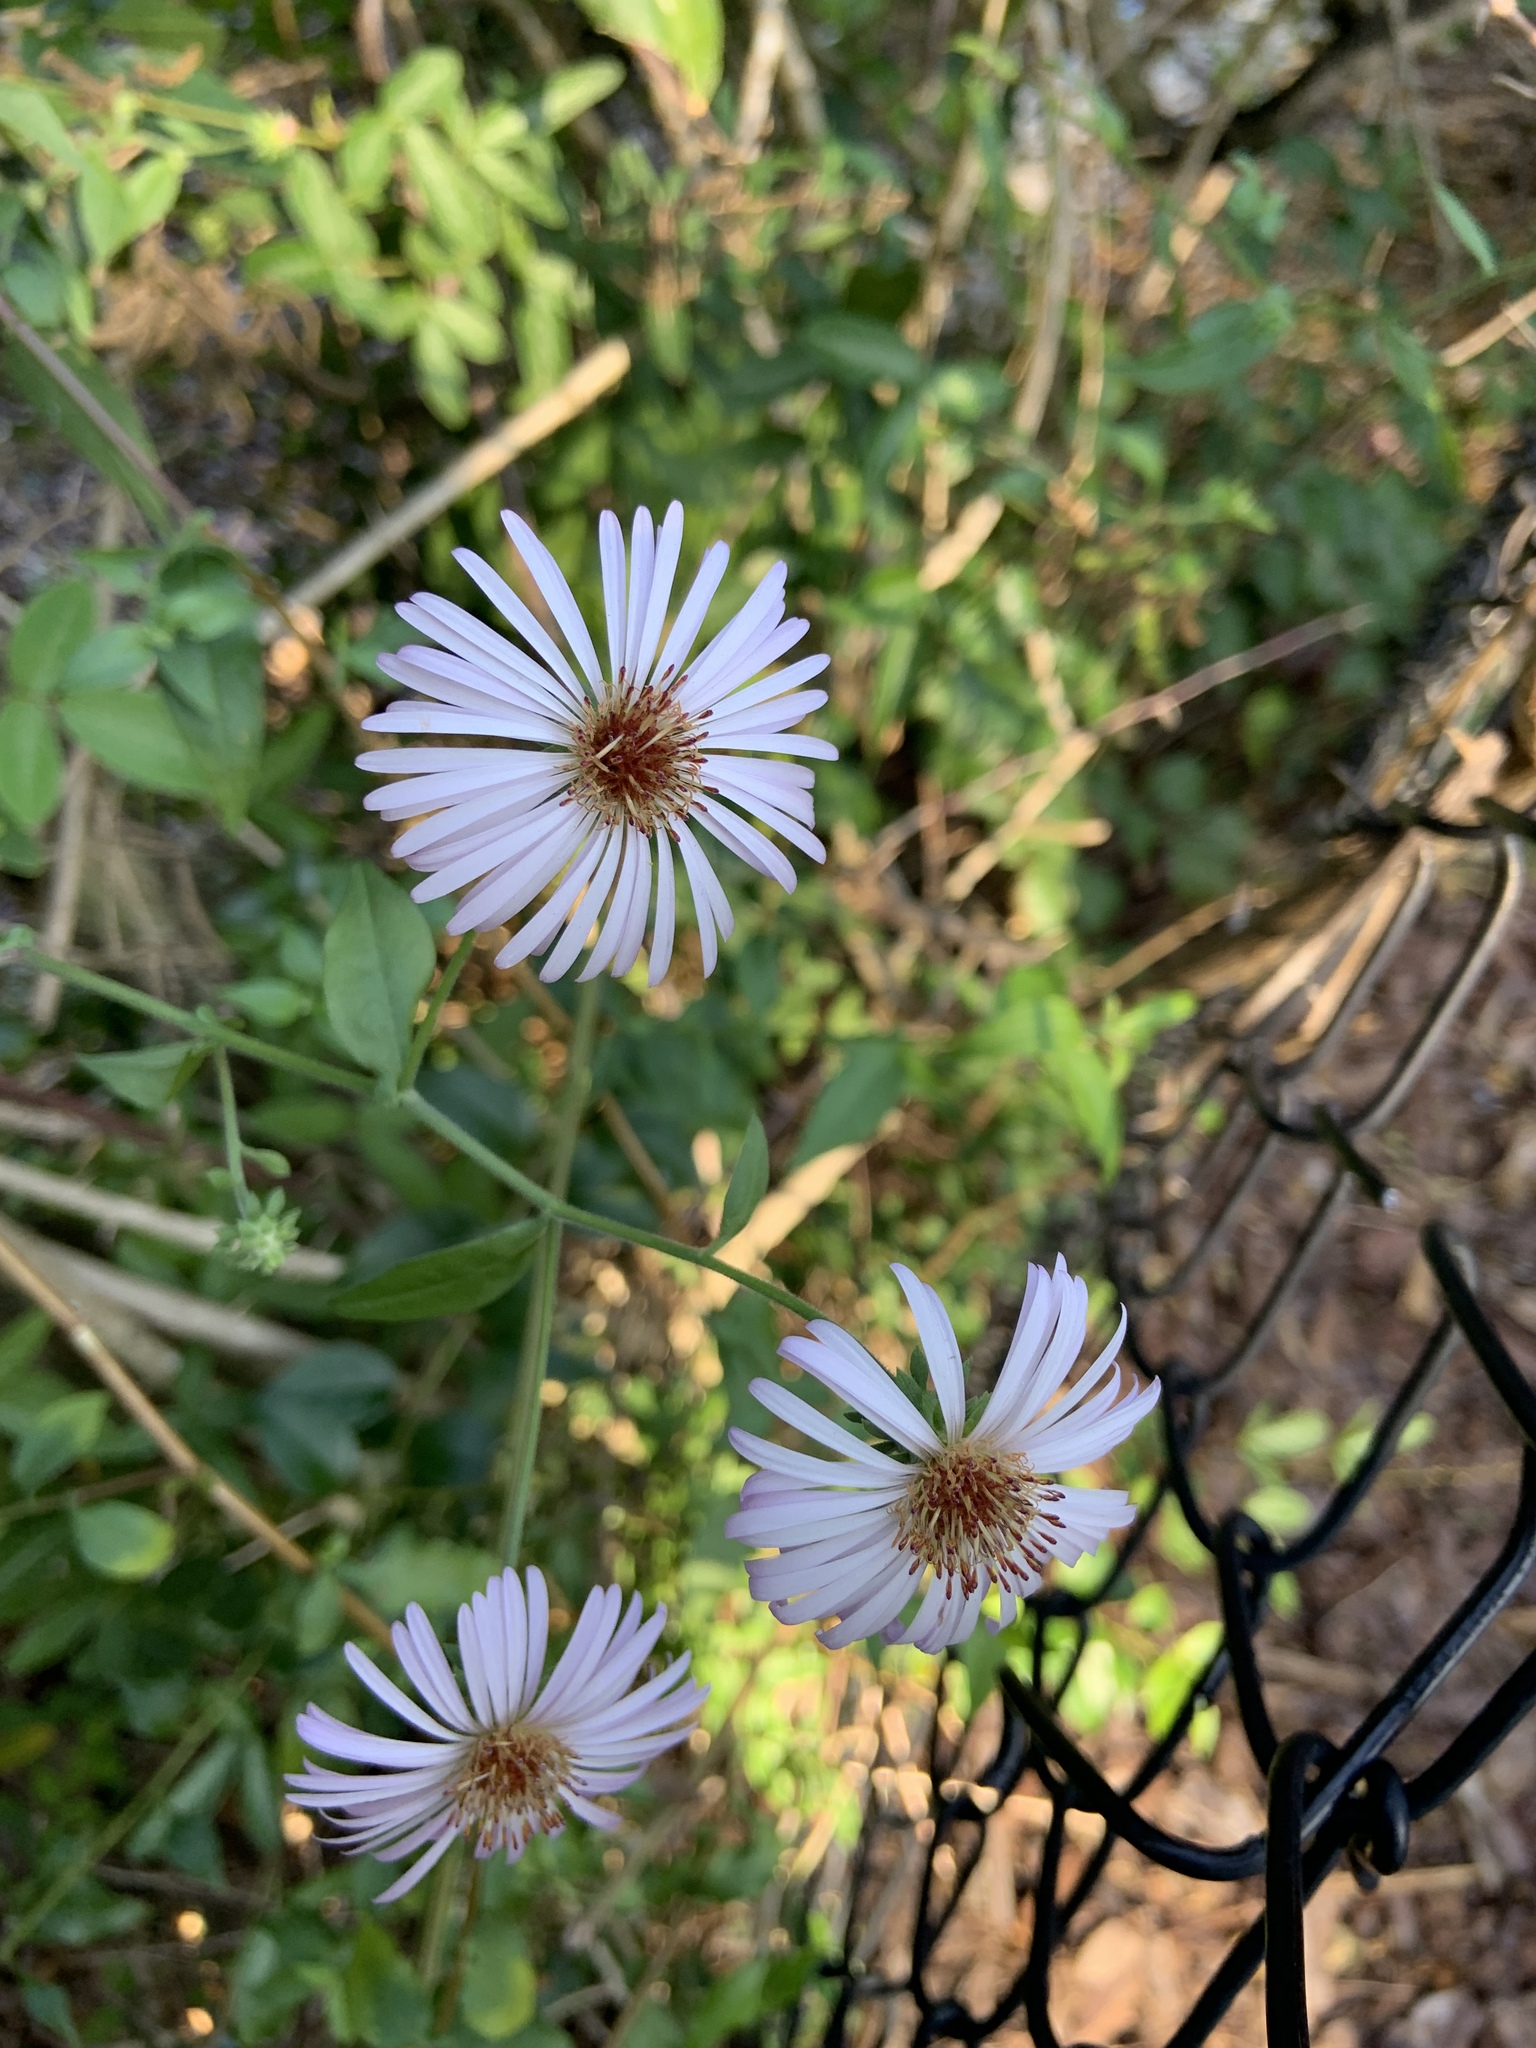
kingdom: Plantae
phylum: Tracheophyta
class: Magnoliopsida
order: Asterales
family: Asteraceae
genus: Ampelaster
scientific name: Ampelaster carolinianus
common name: Climbing aster
